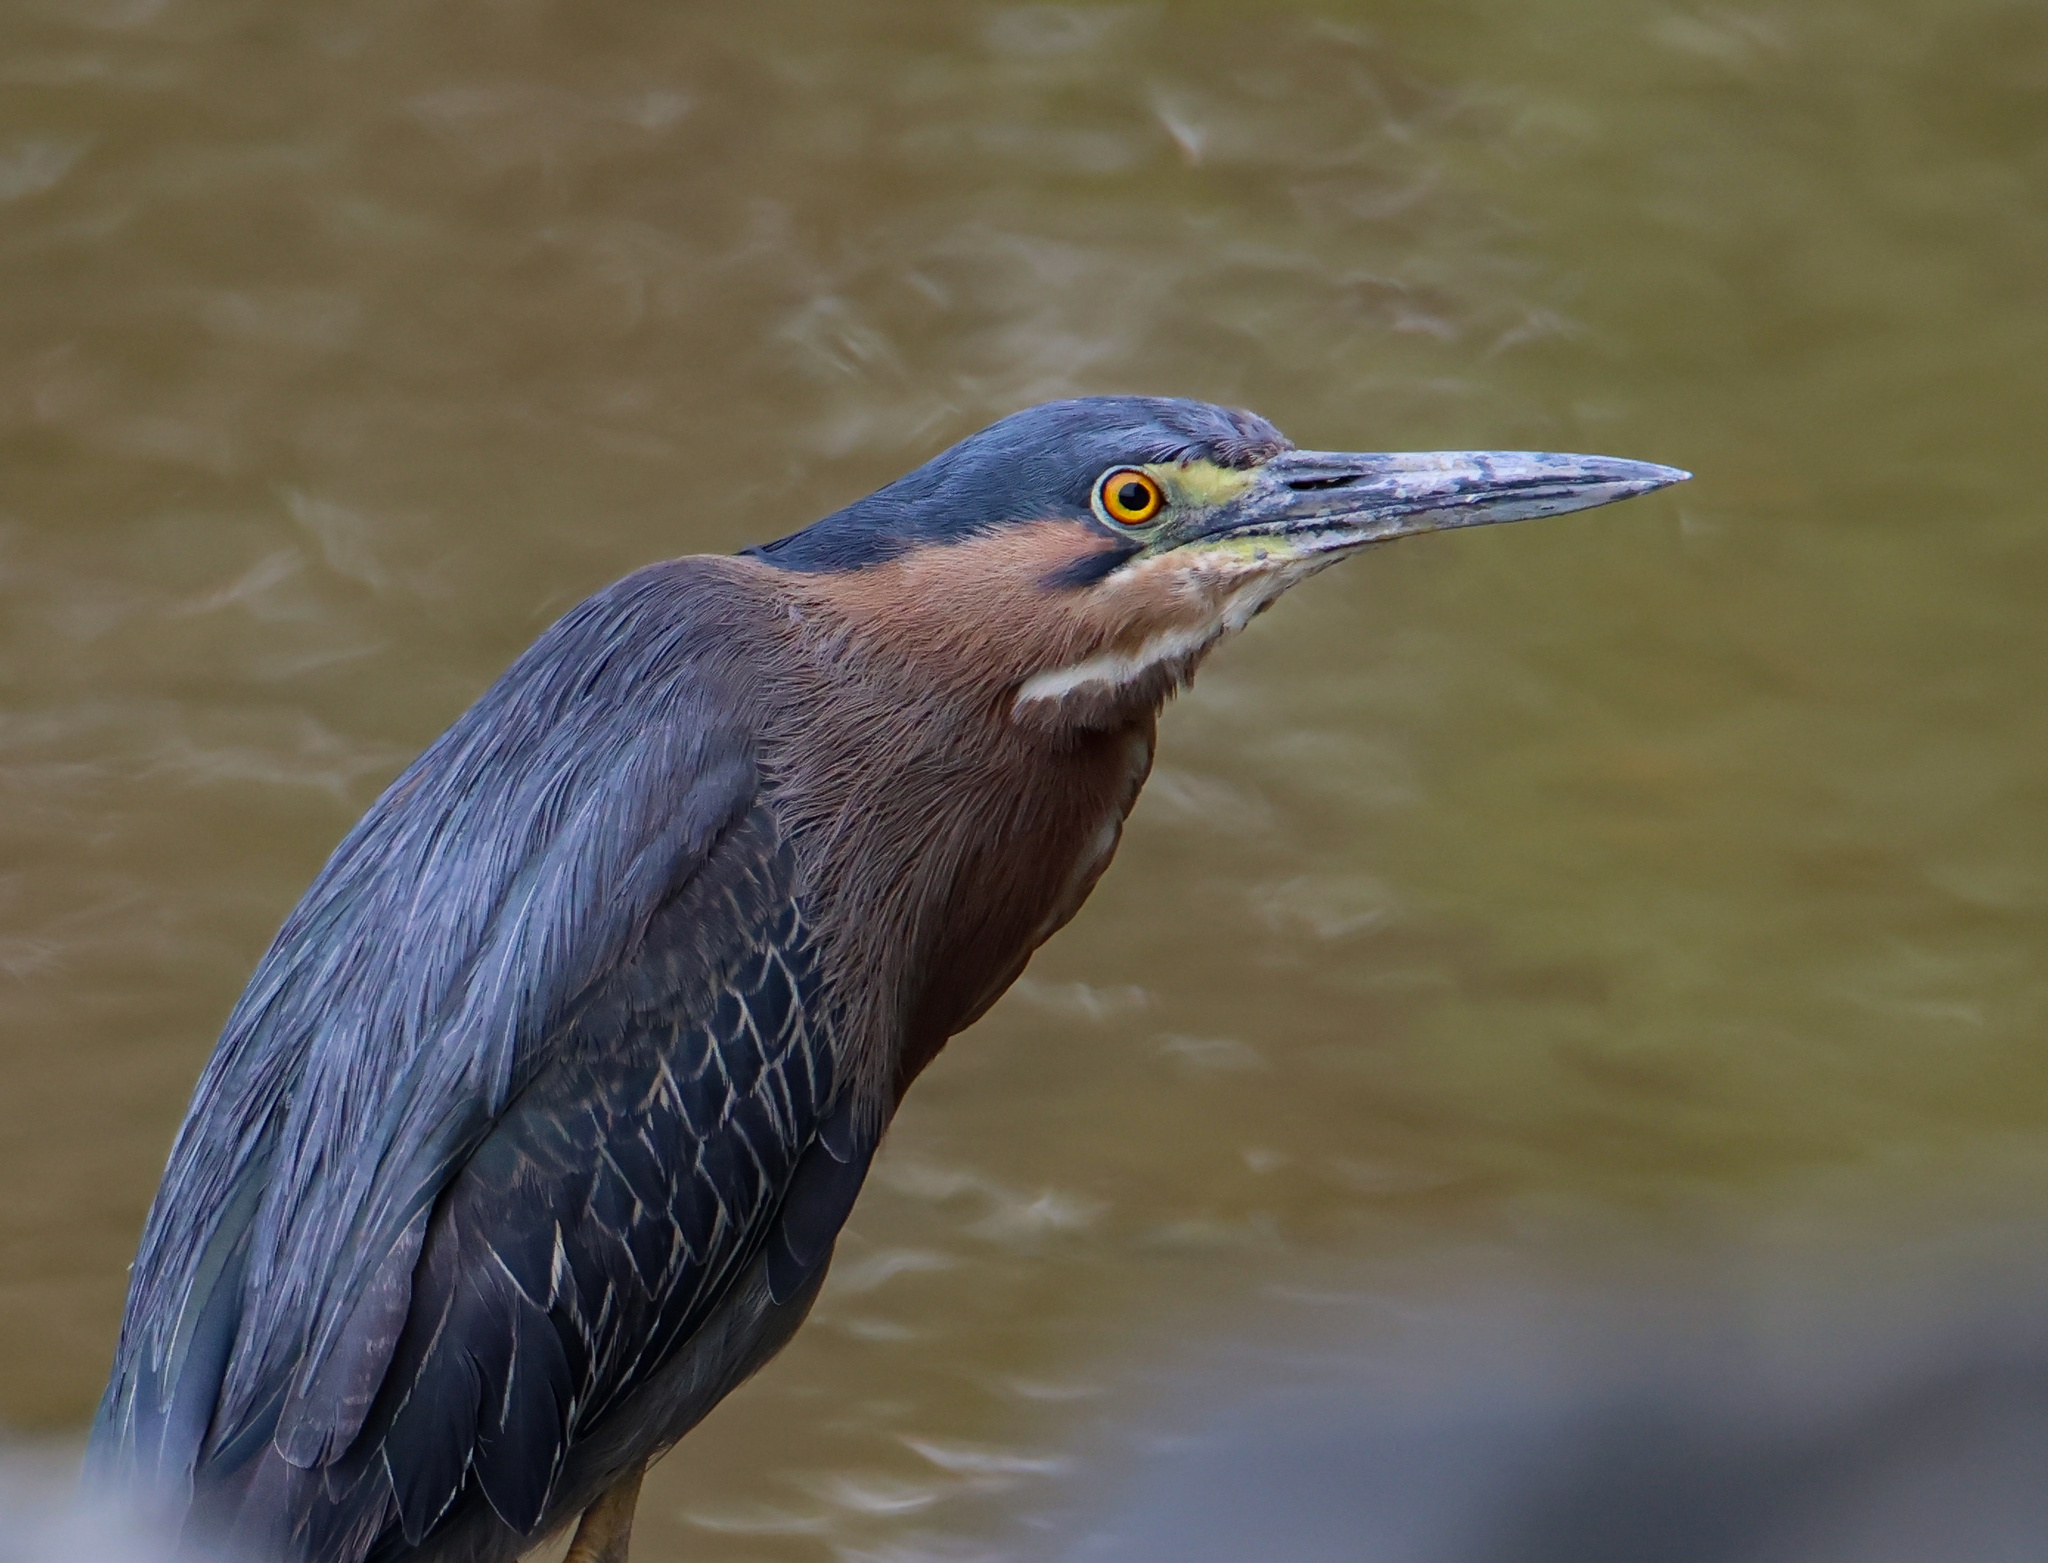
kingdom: Animalia
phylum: Chordata
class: Aves
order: Pelecaniformes
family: Ardeidae
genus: Butorides
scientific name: Butorides virescens
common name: Green heron
